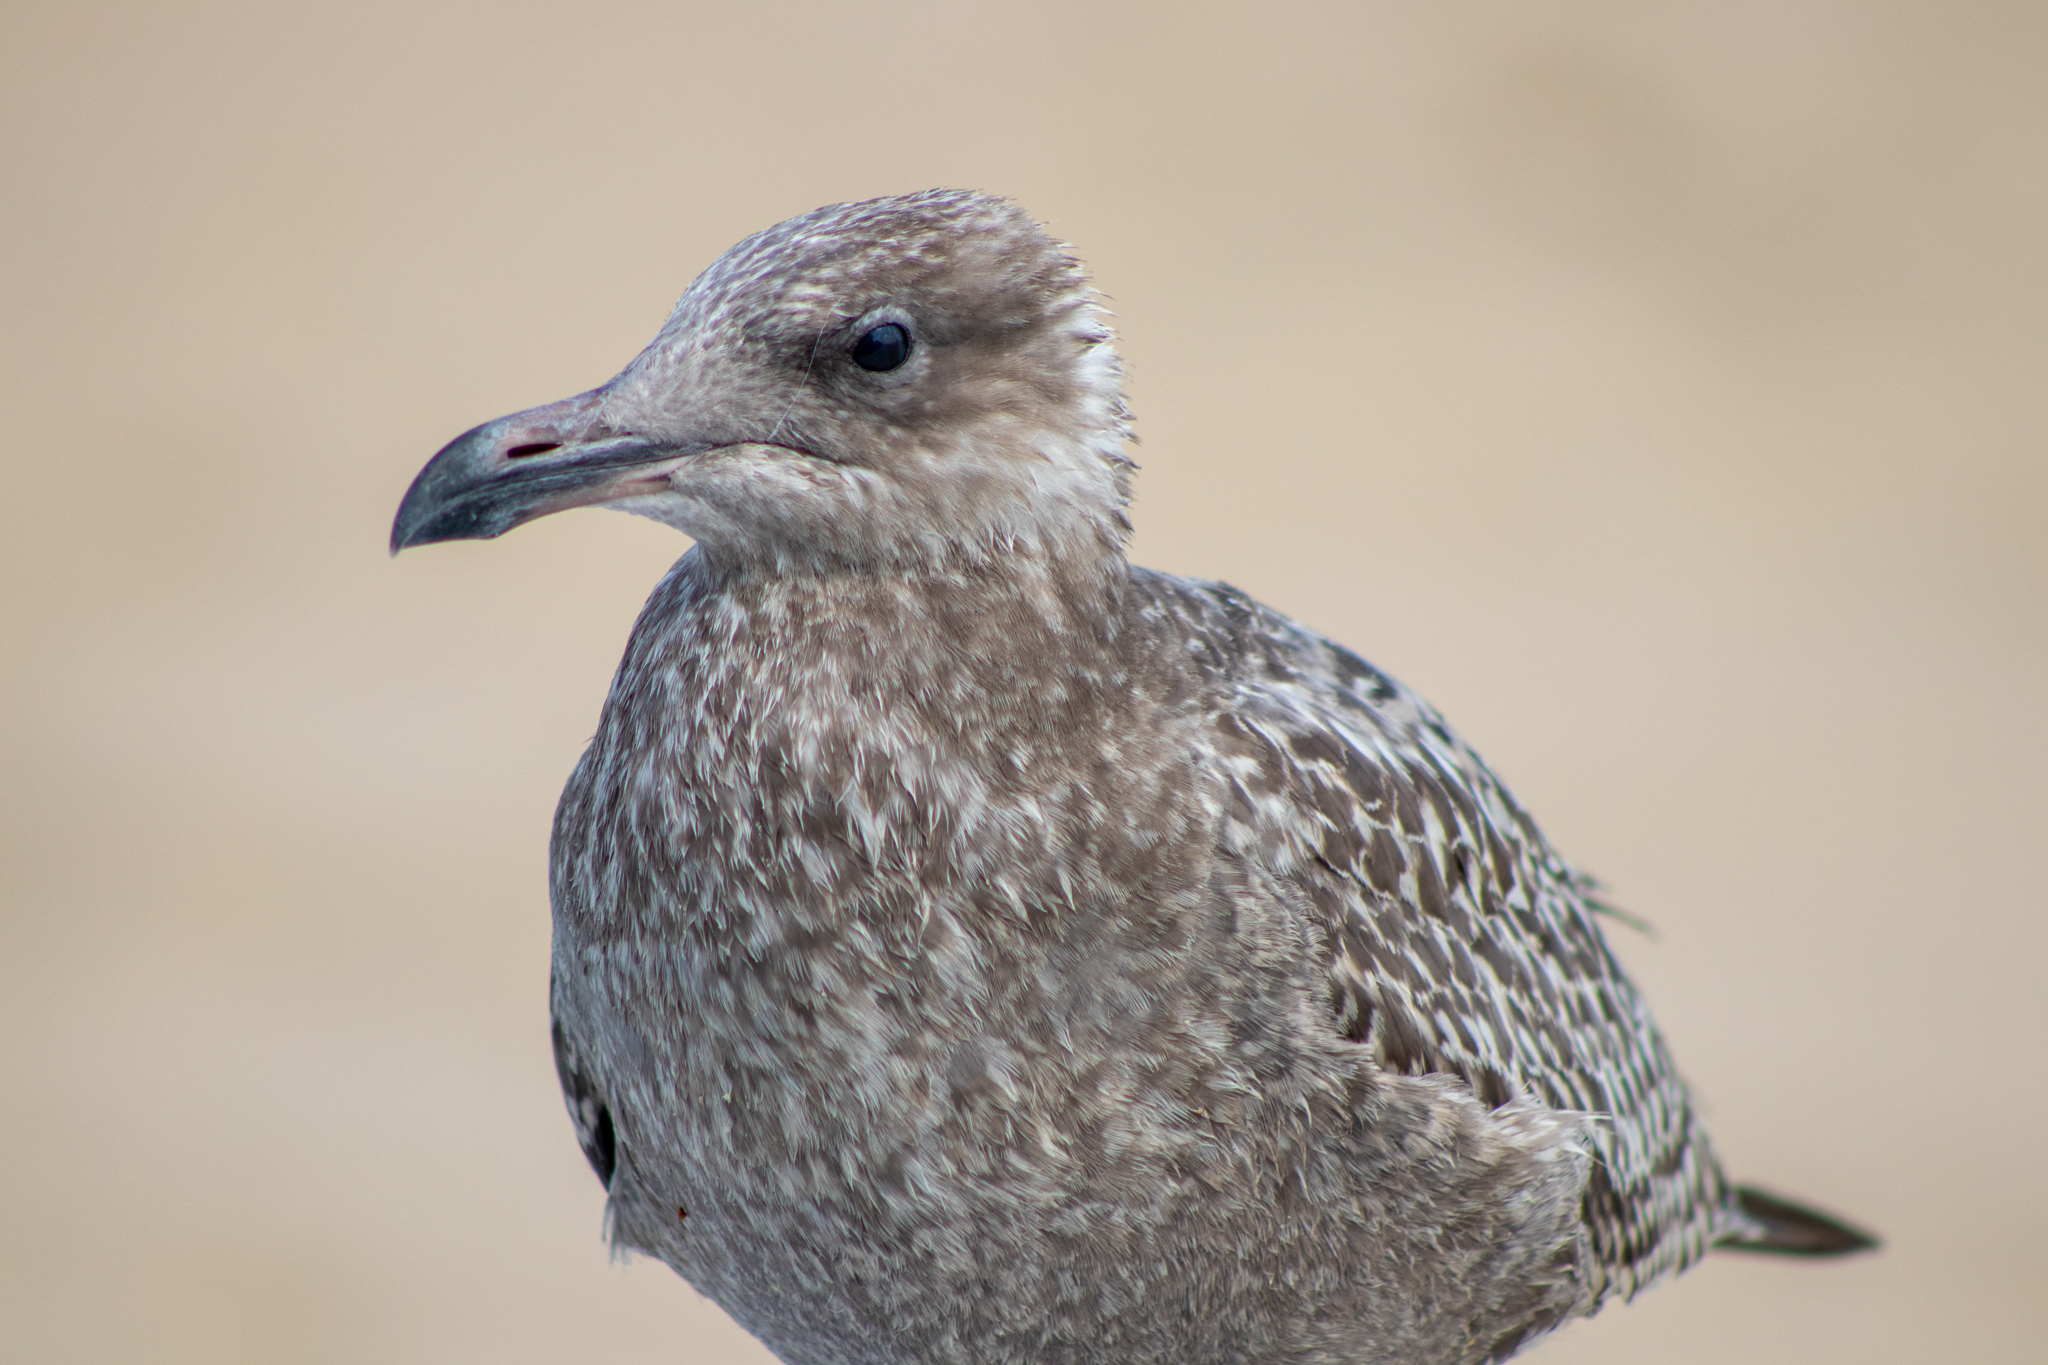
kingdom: Animalia
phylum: Chordata
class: Aves
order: Charadriiformes
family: Laridae
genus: Larus
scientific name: Larus argentatus
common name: Herring gull
